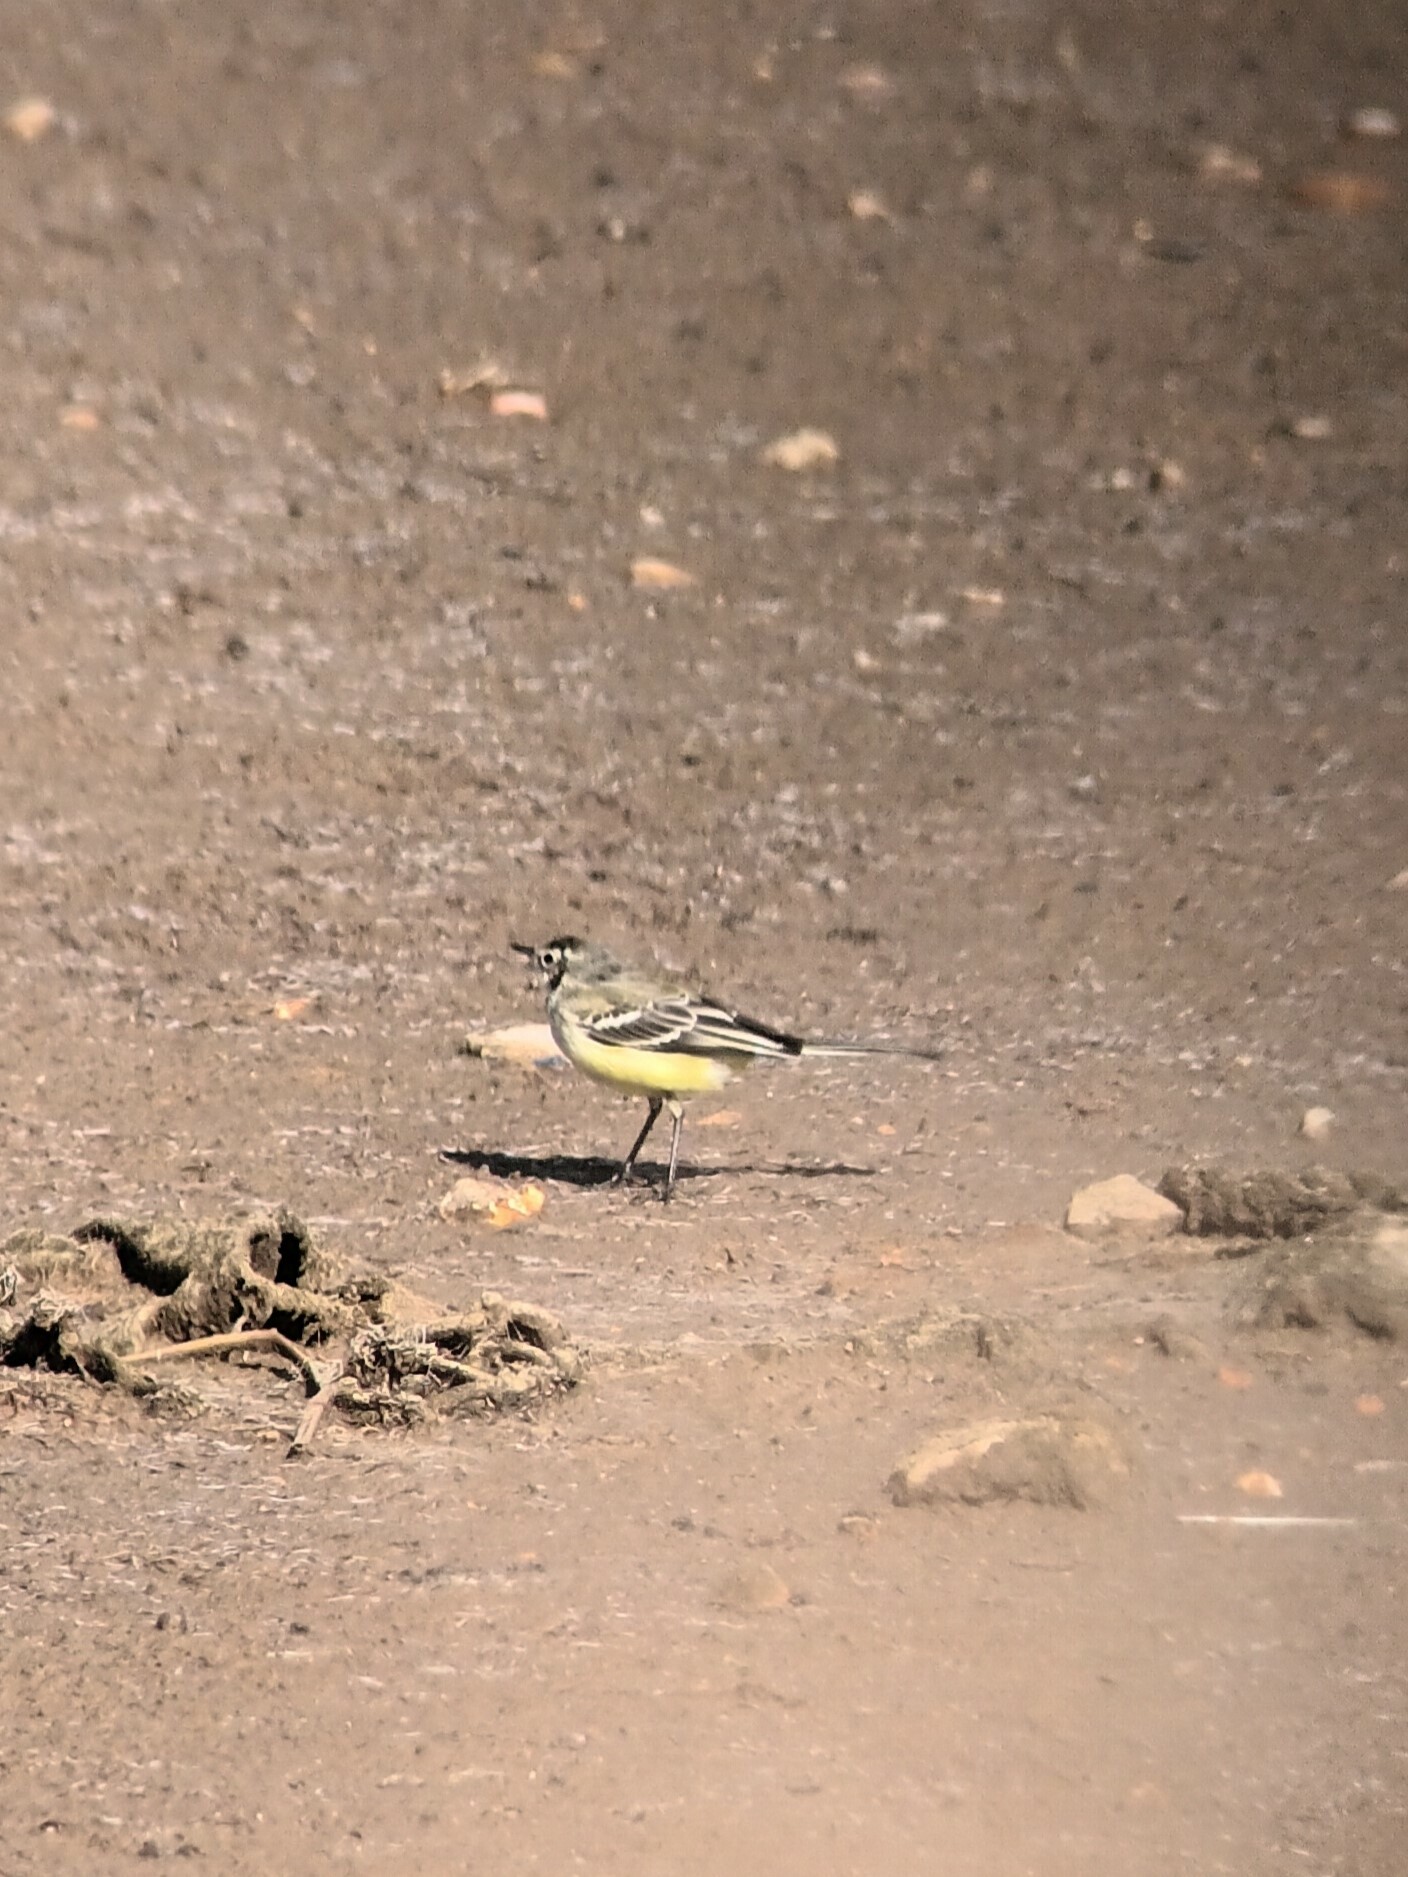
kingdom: Animalia
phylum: Chordata
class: Aves
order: Passeriformes
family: Motacillidae
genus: Motacilla
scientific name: Motacilla flava
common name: Western yellow wagtail
